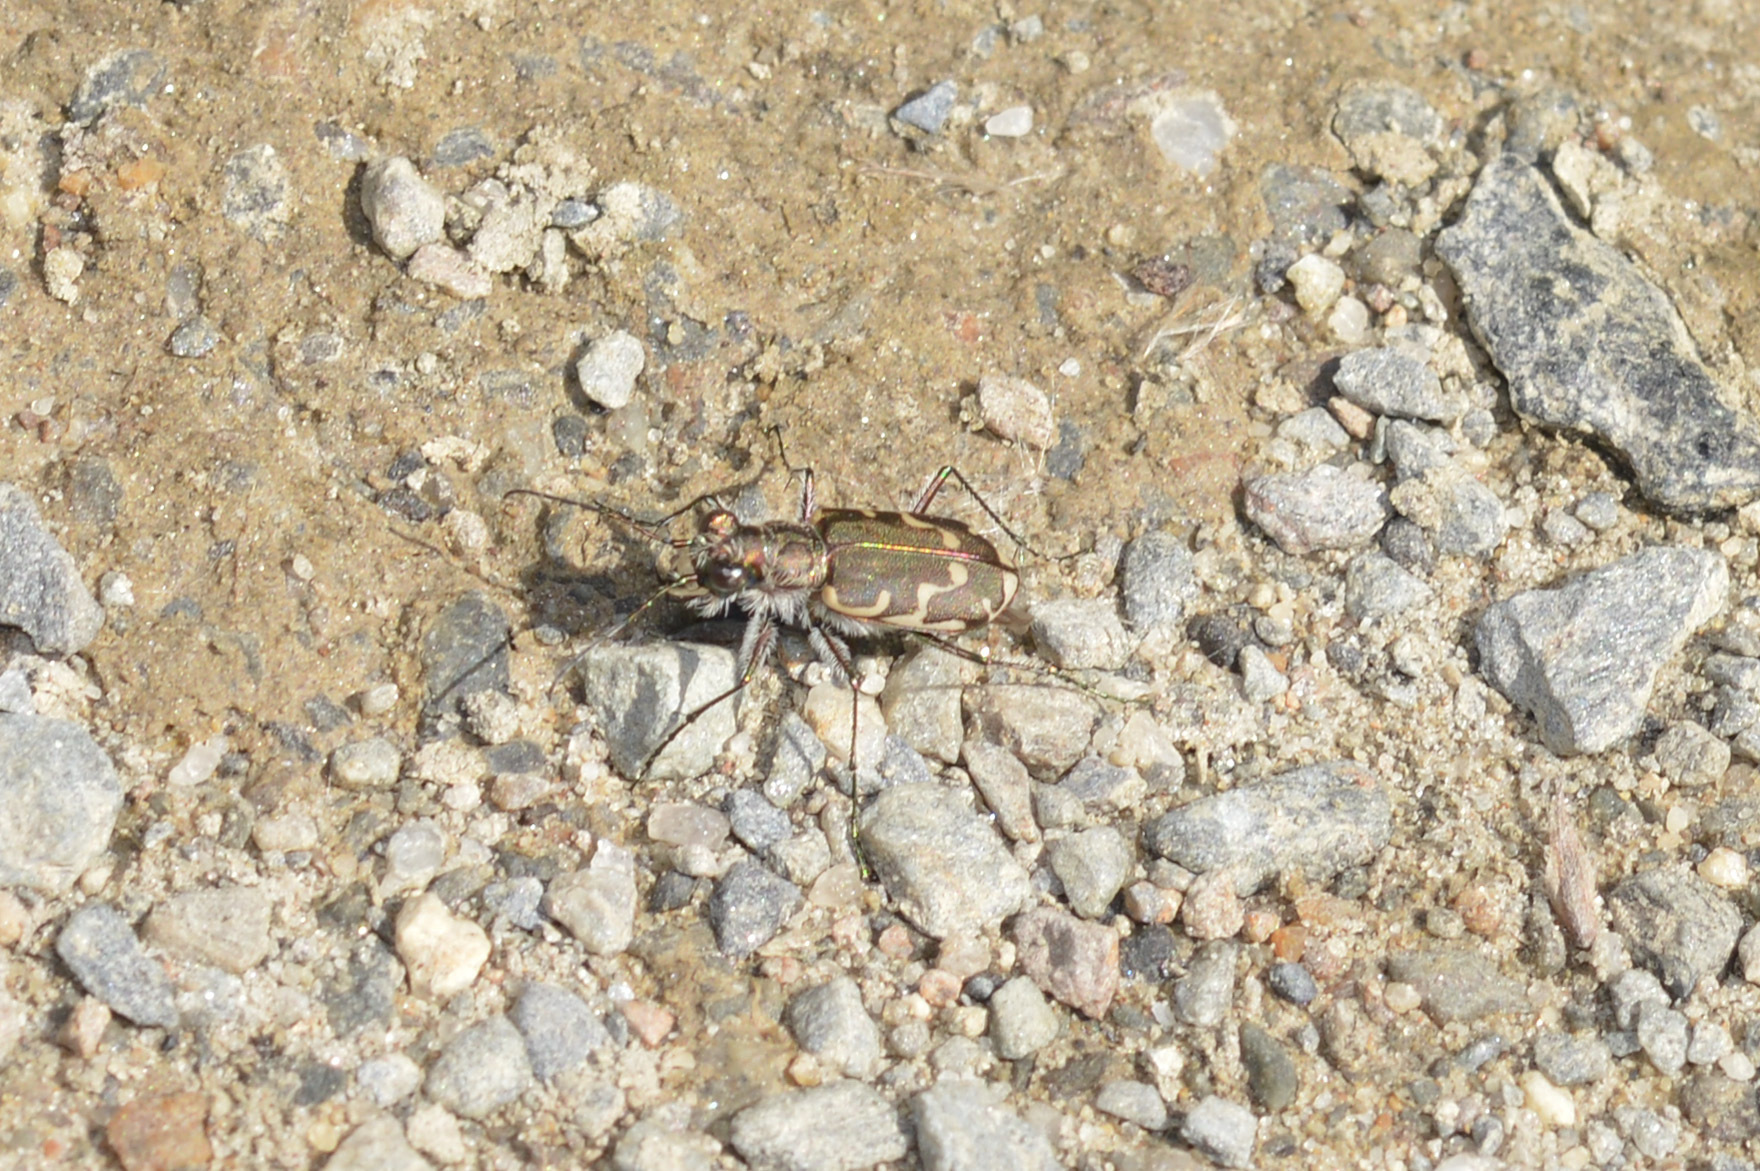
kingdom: Animalia
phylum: Arthropoda
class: Insecta
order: Coleoptera
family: Carabidae
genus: Cicindela
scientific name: Cicindela repanda
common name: Bronzed tiger beetle
